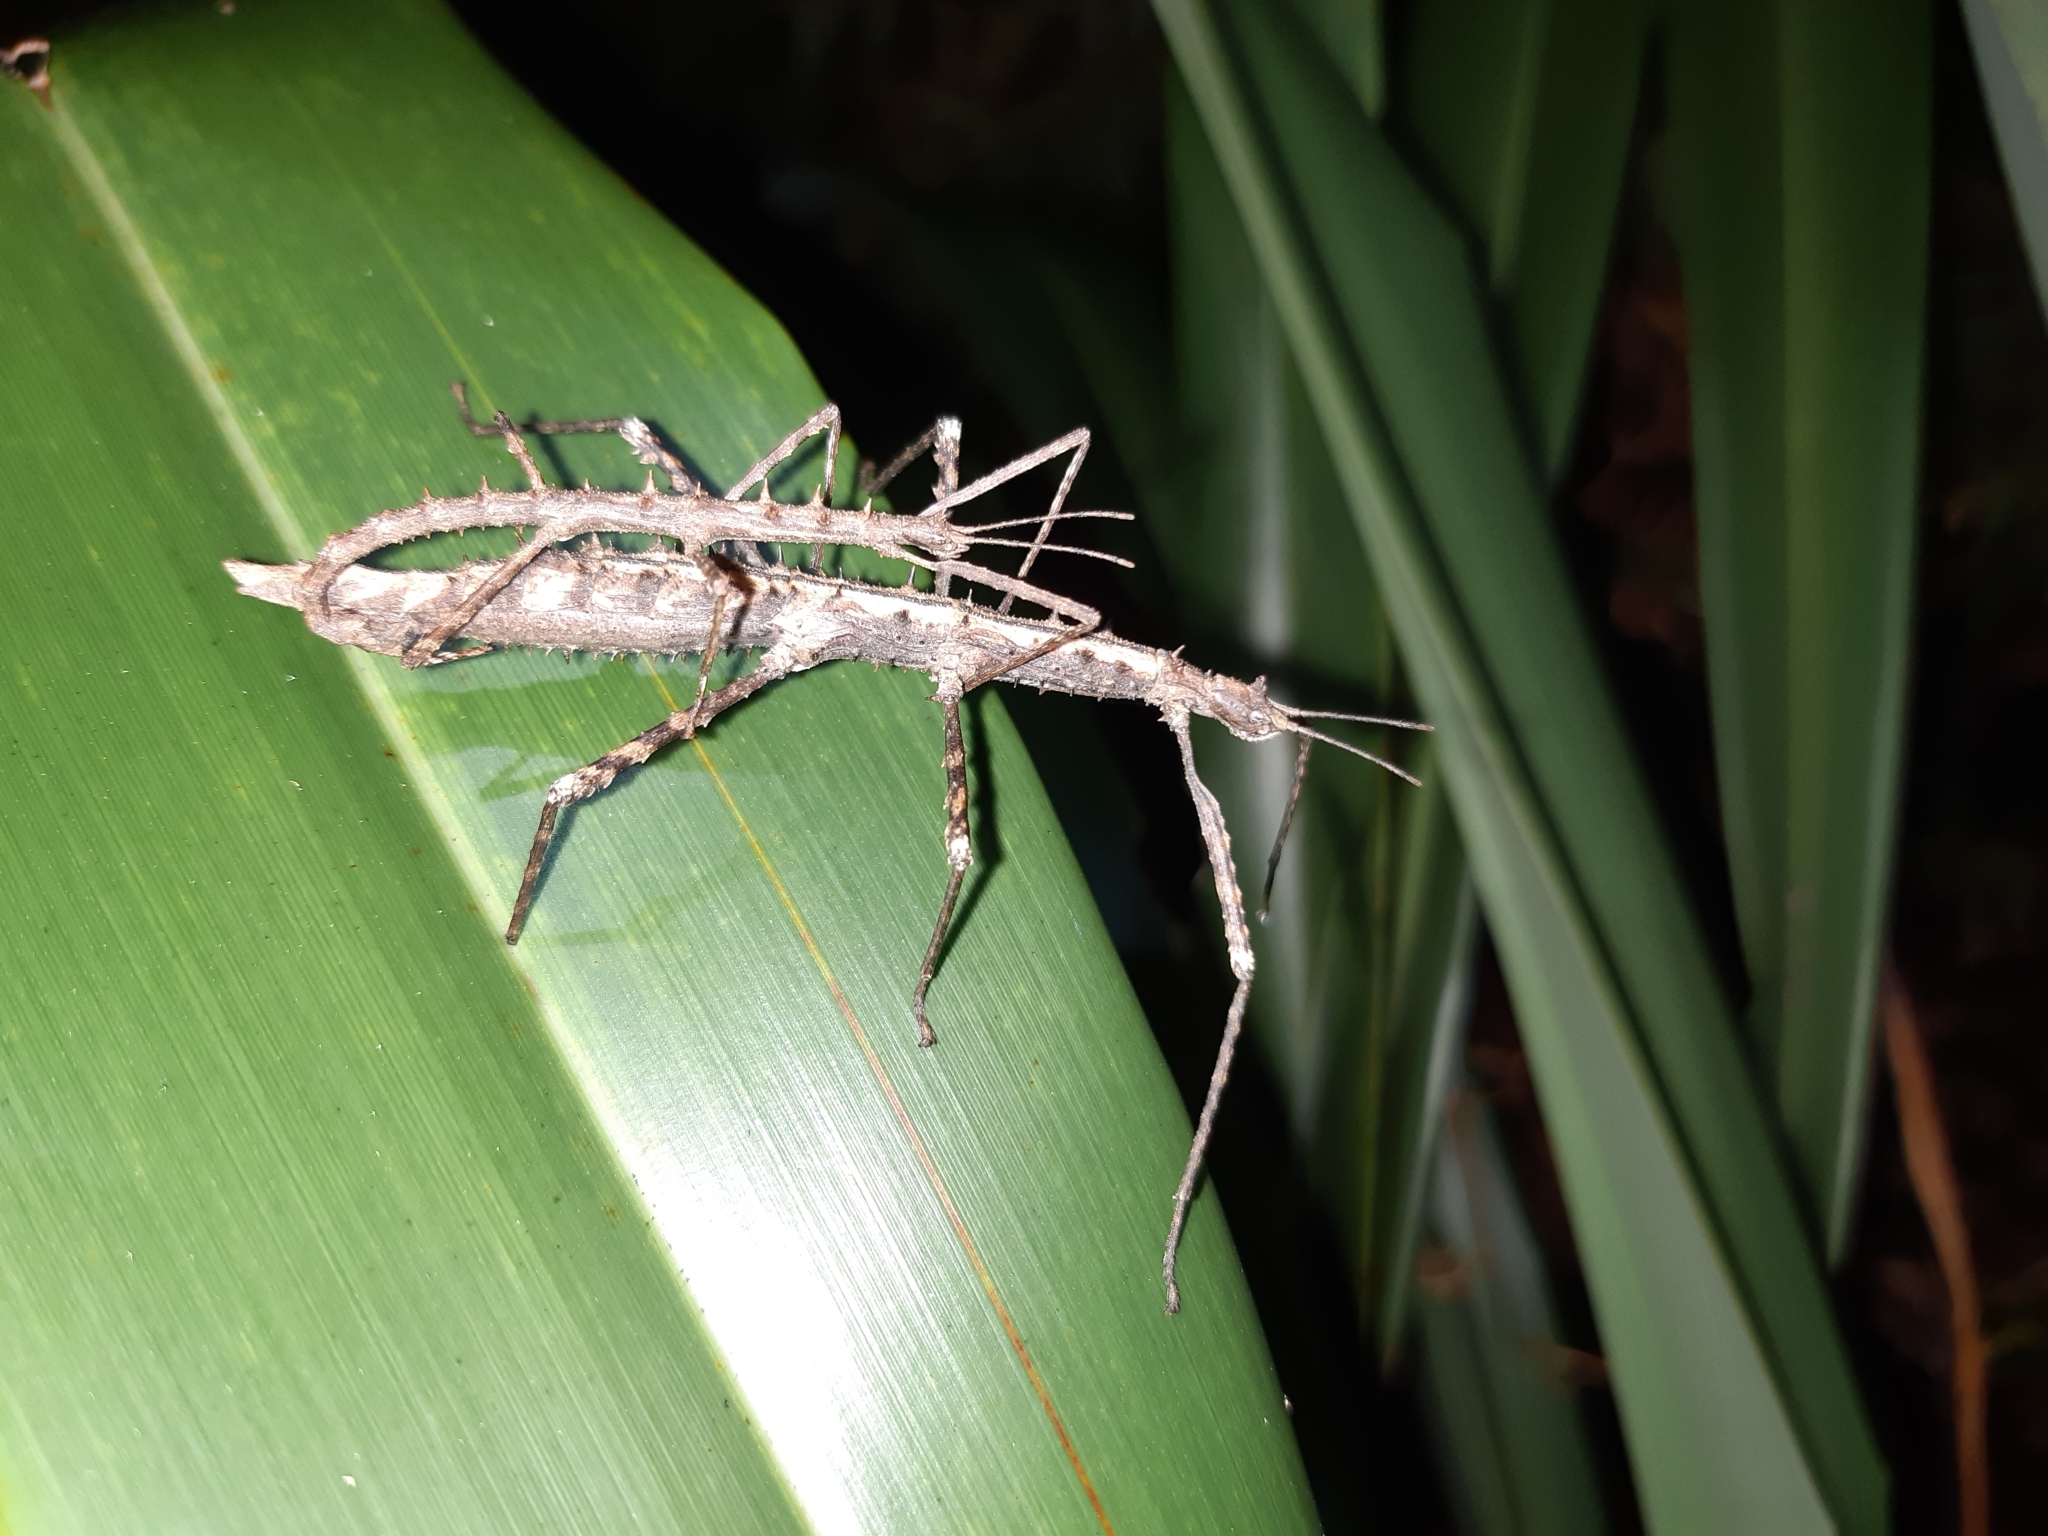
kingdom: Animalia
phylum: Arthropoda
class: Insecta
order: Phasmida
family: Phasmatidae
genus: Micrarchus
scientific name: Micrarchus hystriculeus
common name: The lesser spiny stick insect
